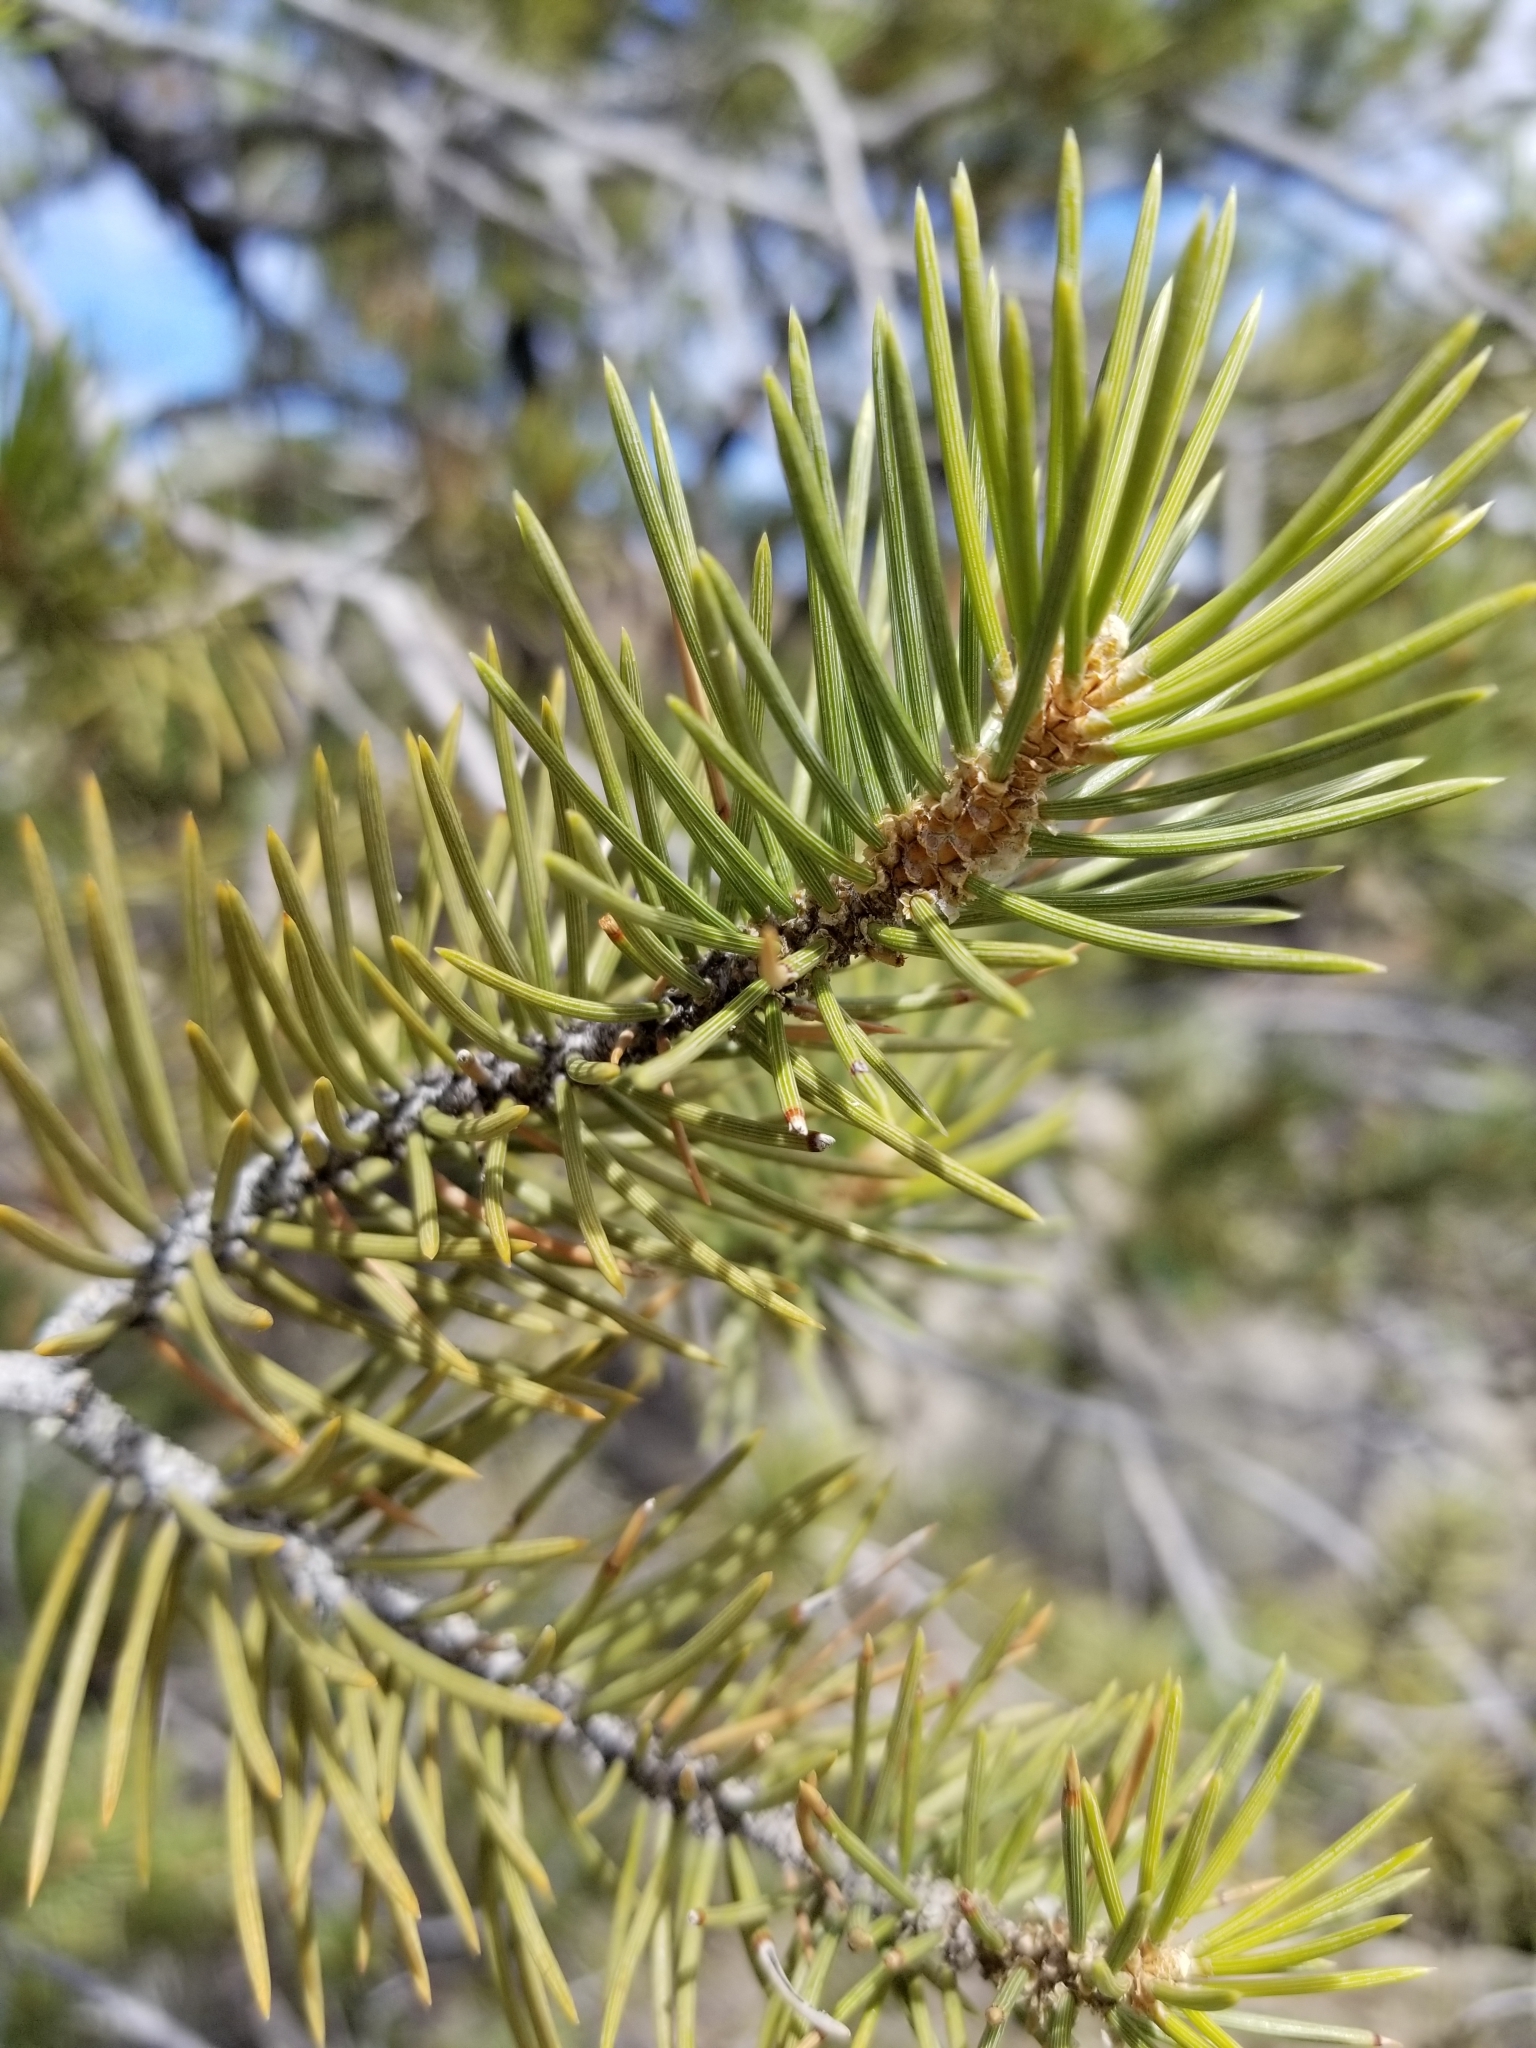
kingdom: Plantae
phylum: Tracheophyta
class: Pinopsida
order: Pinales
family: Pinaceae
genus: Pinus
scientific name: Pinus monophylla
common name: One-leaved nut pine
